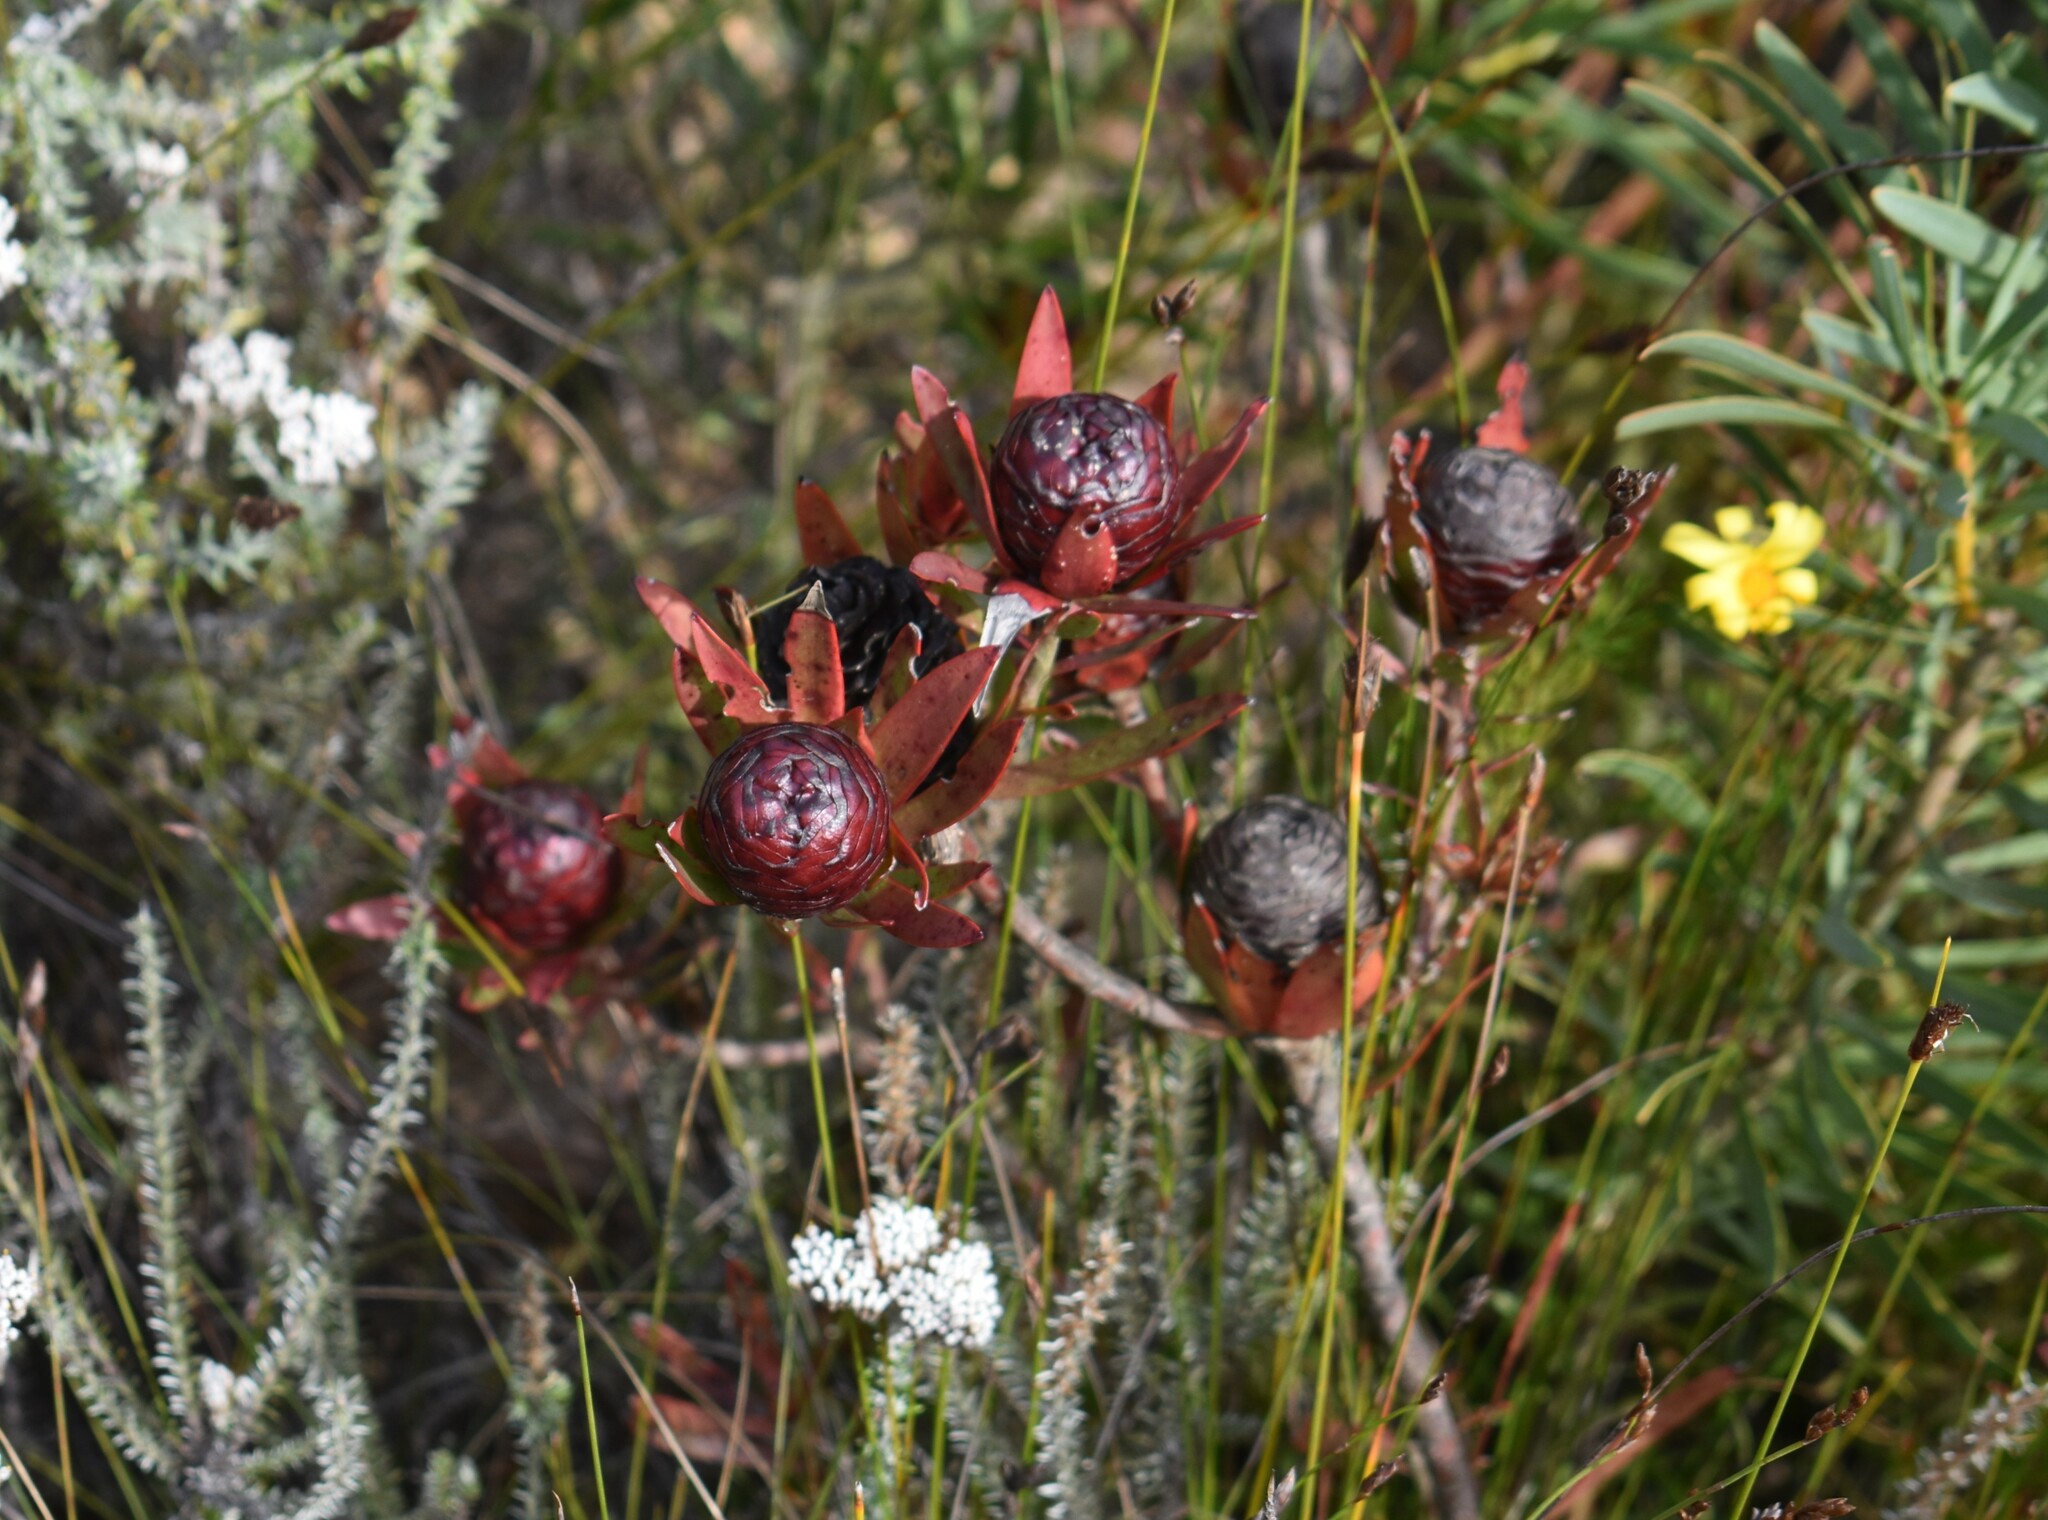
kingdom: Plantae
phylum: Tracheophyta
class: Magnoliopsida
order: Proteales
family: Proteaceae
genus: Leucadendron
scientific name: Leucadendron spissifolium
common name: Spear-leaf conebush
